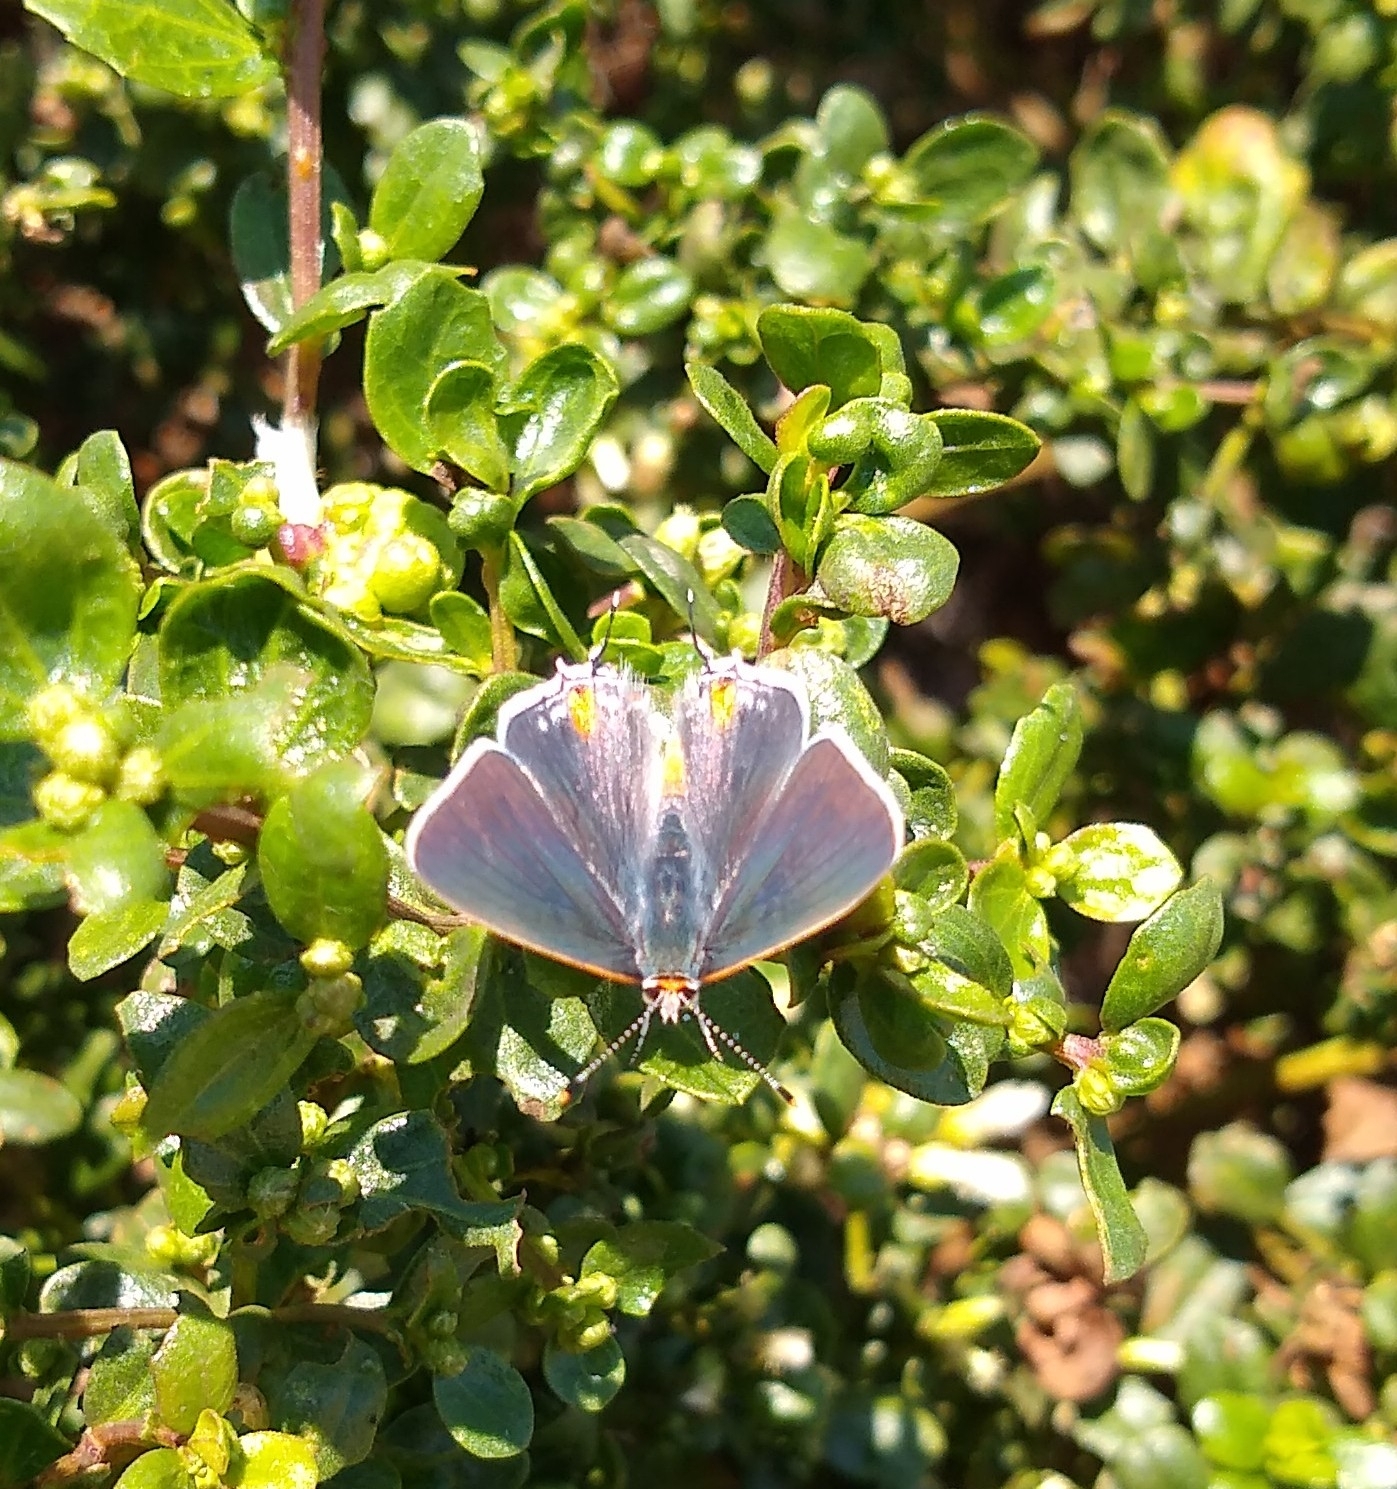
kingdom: Animalia
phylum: Arthropoda
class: Insecta
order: Lepidoptera
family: Lycaenidae
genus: Strymon
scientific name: Strymon melinus
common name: Gray hairstreak
